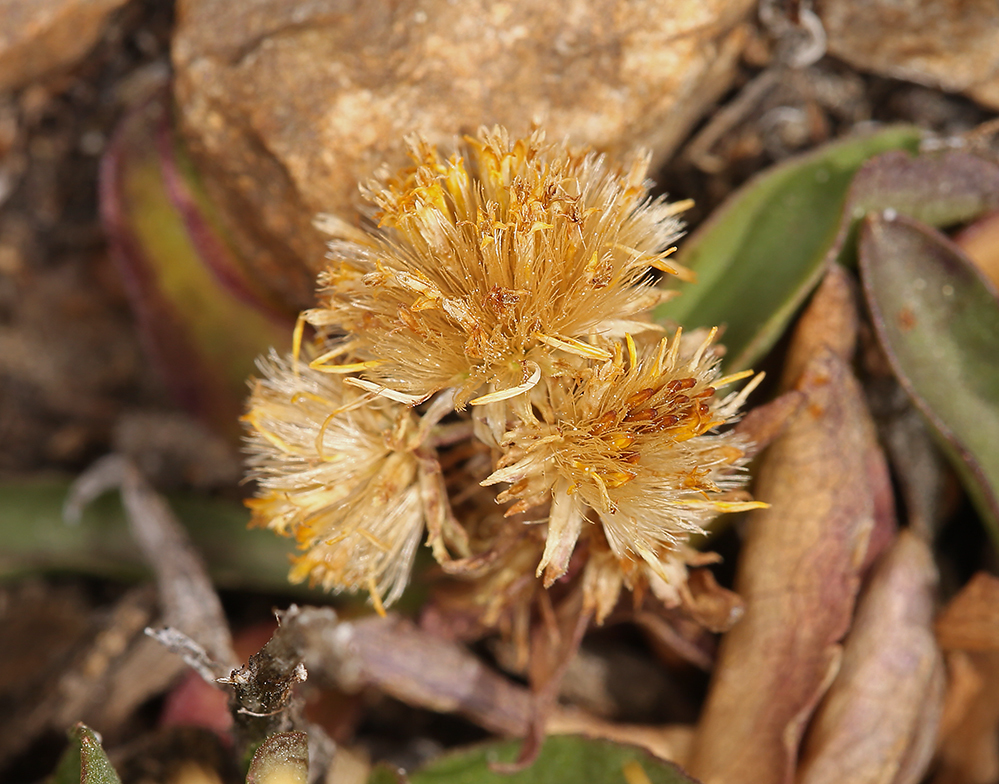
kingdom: Plantae
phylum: Tracheophyta
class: Magnoliopsida
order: Asterales
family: Asteraceae
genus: Solidago
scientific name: Solidago multiradiata
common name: Northern goldenrod
